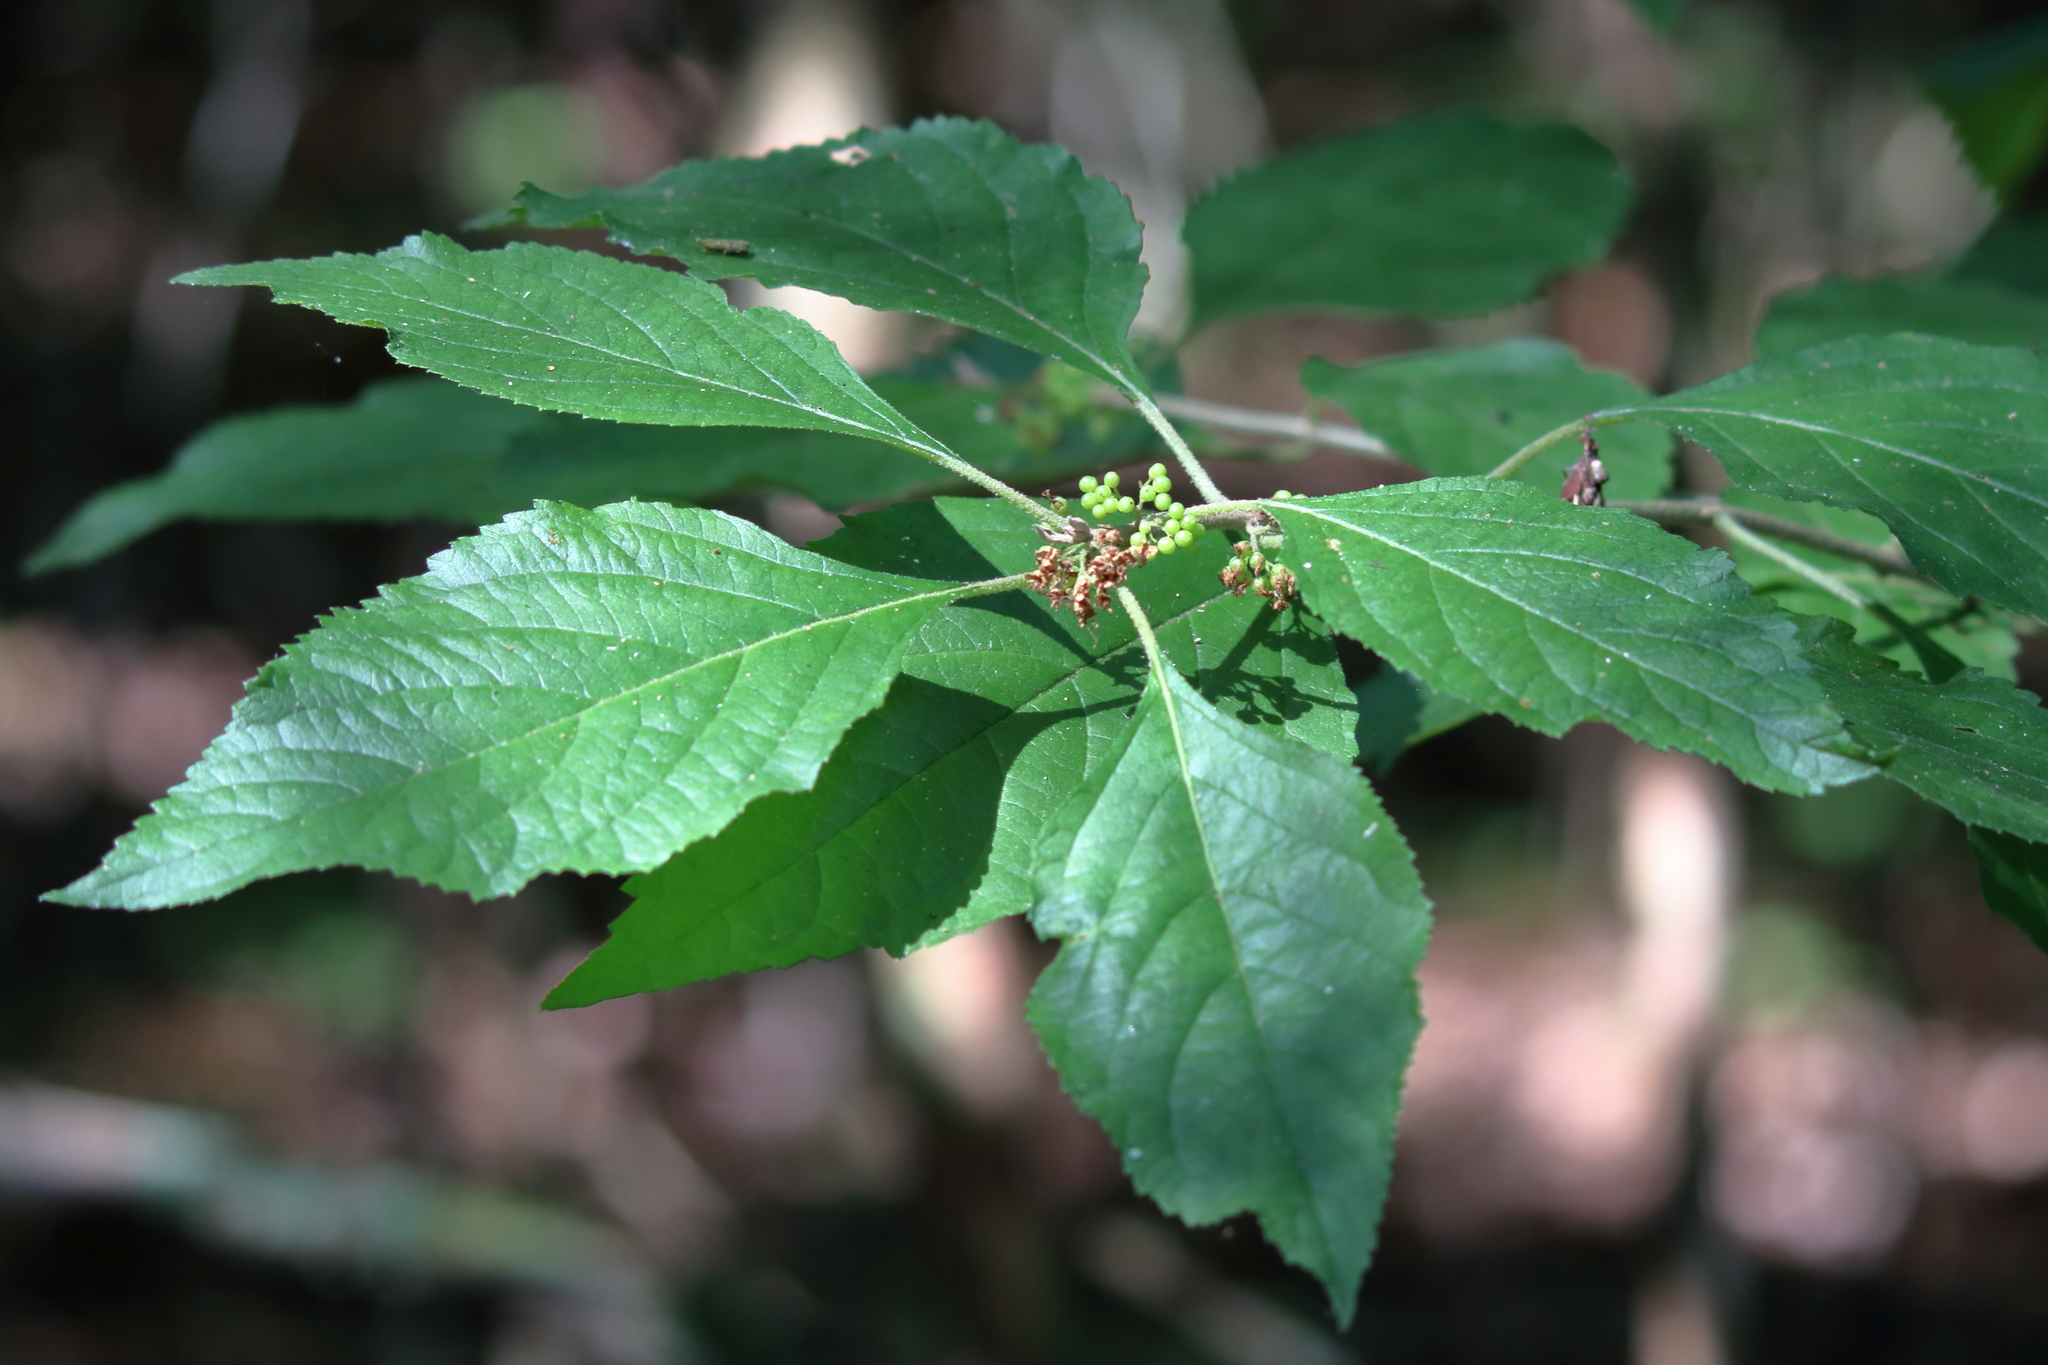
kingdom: Plantae
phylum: Tracheophyta
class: Magnoliopsida
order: Lamiales
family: Lamiaceae
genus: Callicarpa
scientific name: Callicarpa americana
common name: American beautyberry
